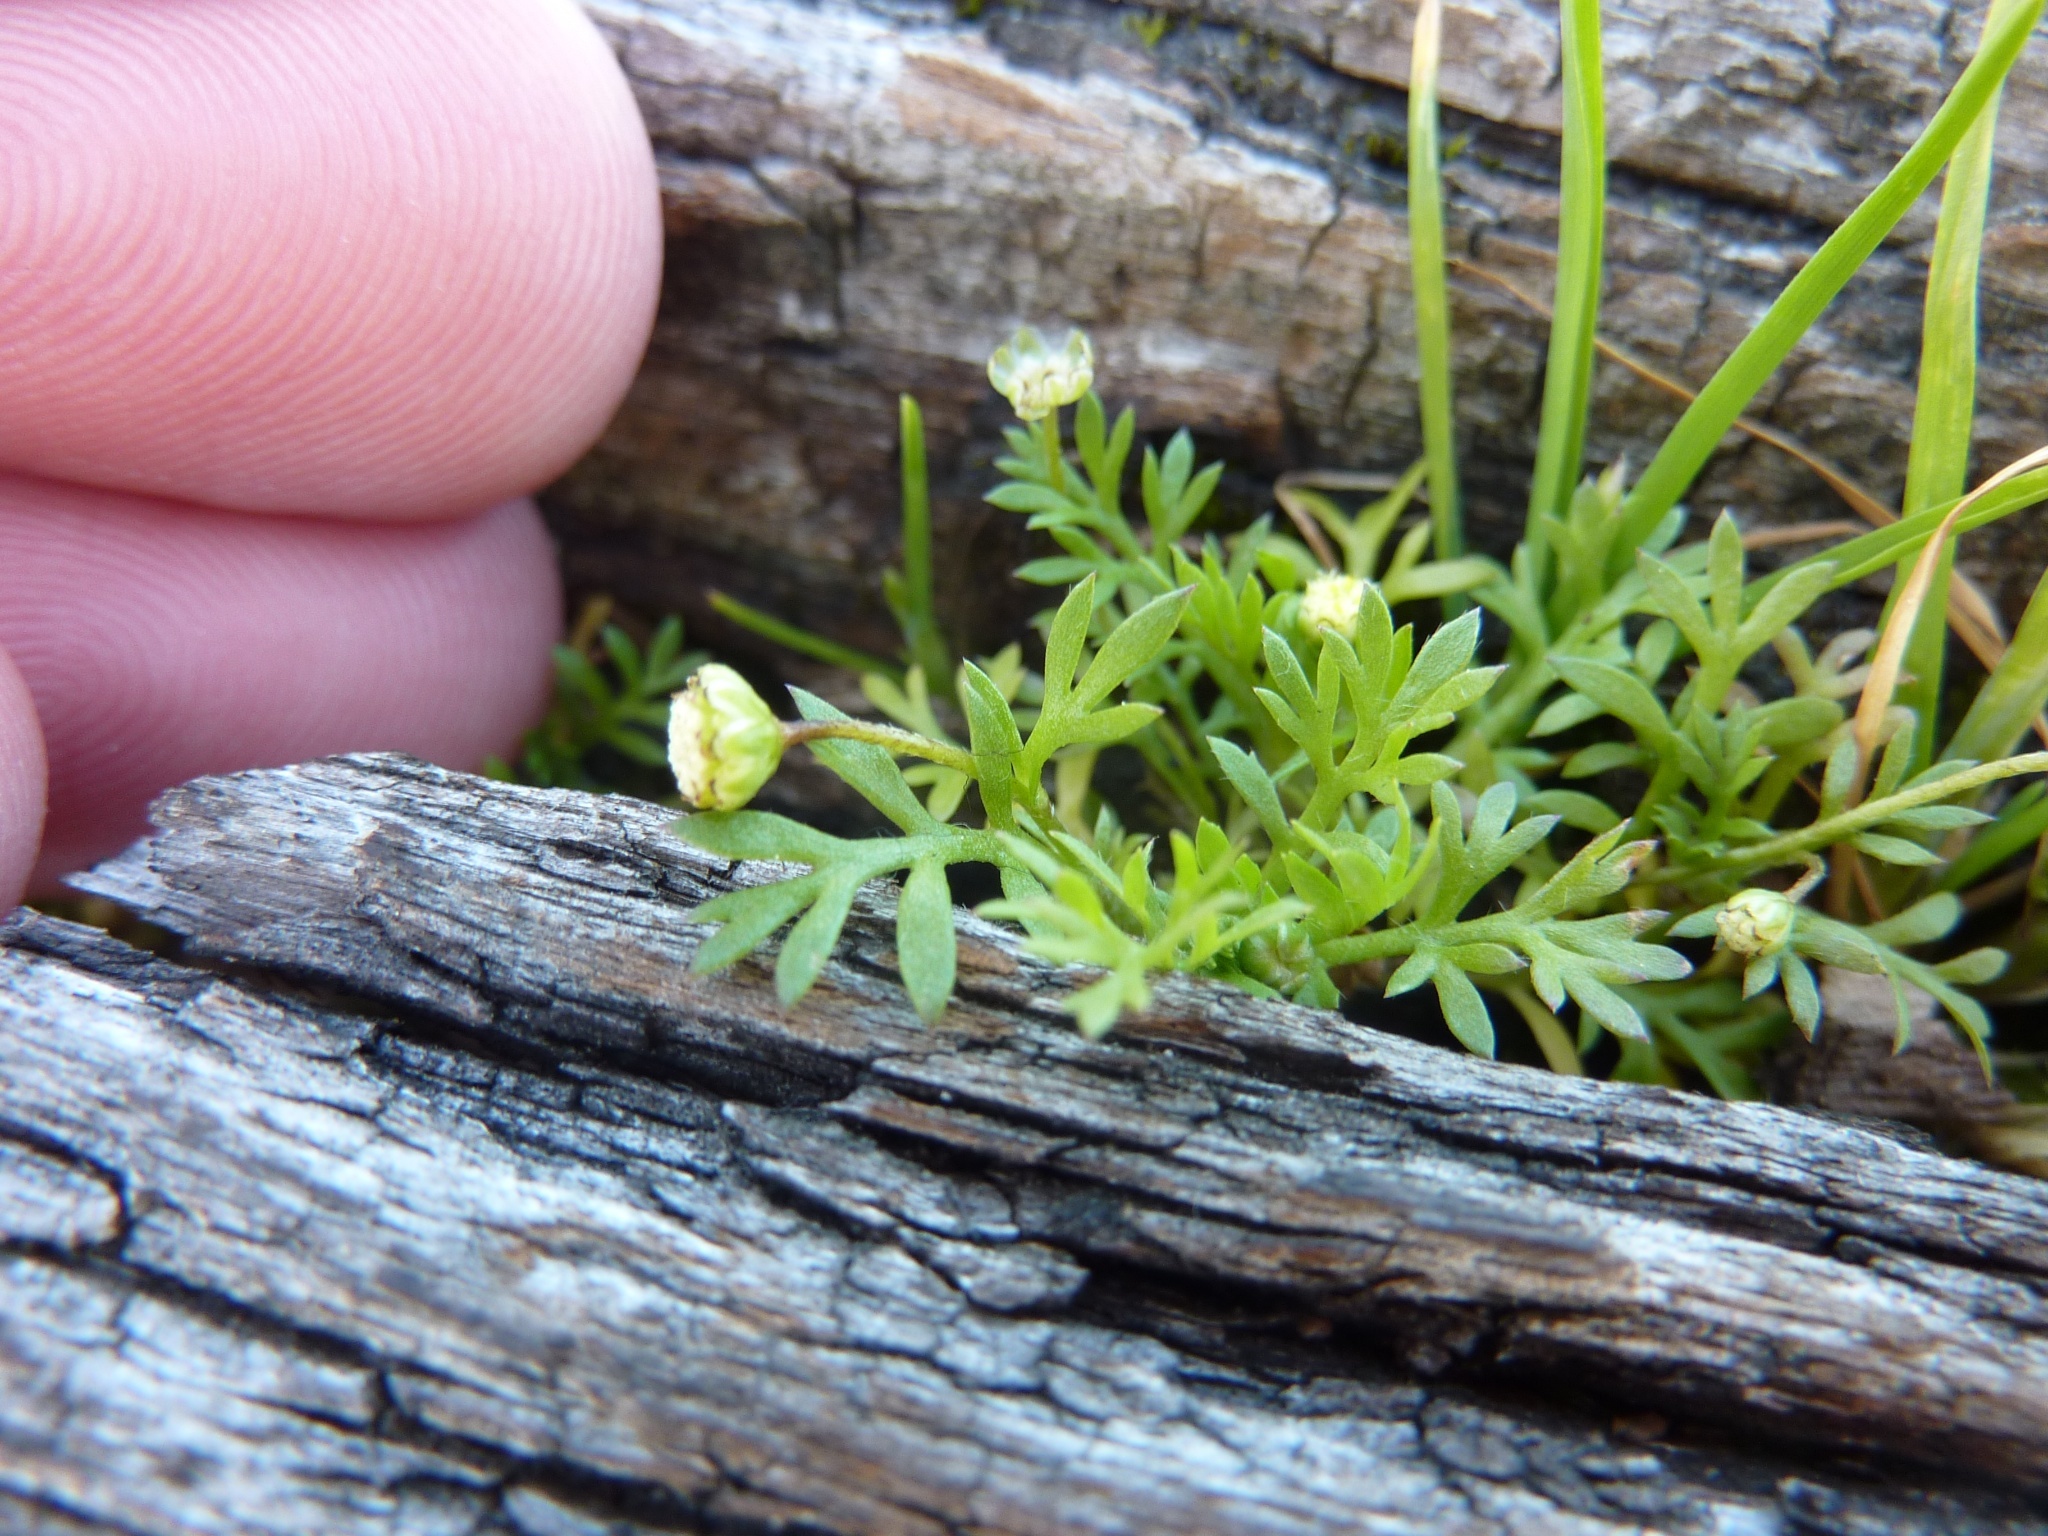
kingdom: Plantae
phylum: Tracheophyta
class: Magnoliopsida
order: Asterales
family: Asteraceae
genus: Cotula
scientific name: Cotula australis
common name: Australian waterbuttons
